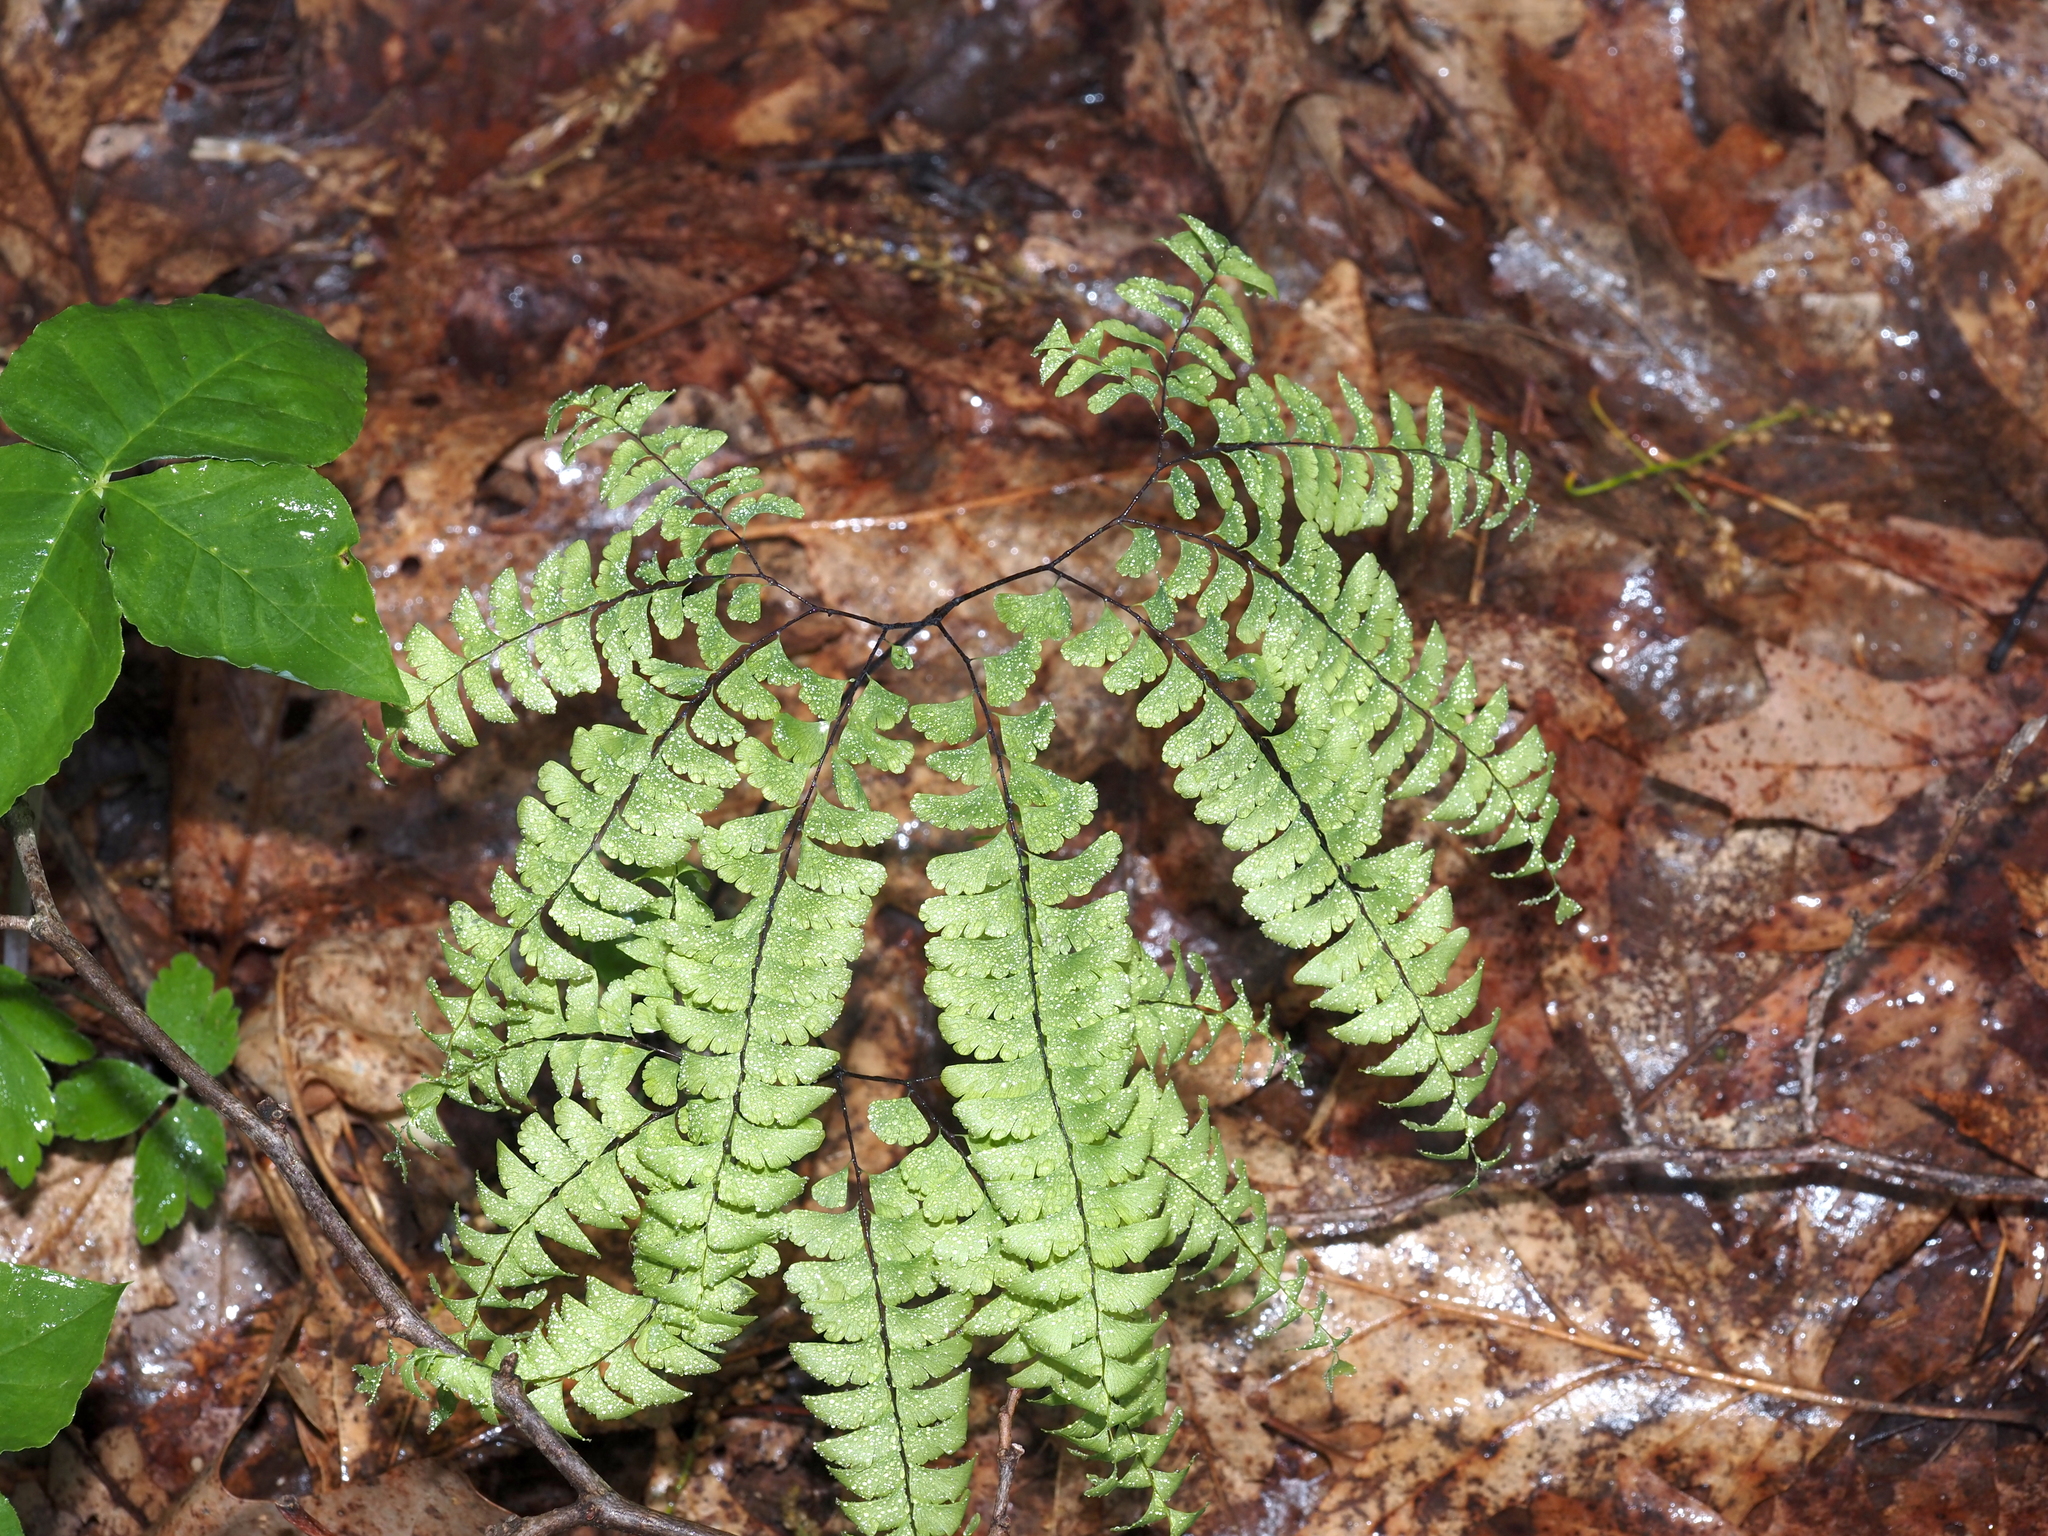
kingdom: Plantae
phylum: Tracheophyta
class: Polypodiopsida
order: Polypodiales
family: Pteridaceae
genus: Adiantum
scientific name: Adiantum pedatum
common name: Five-finger fern
